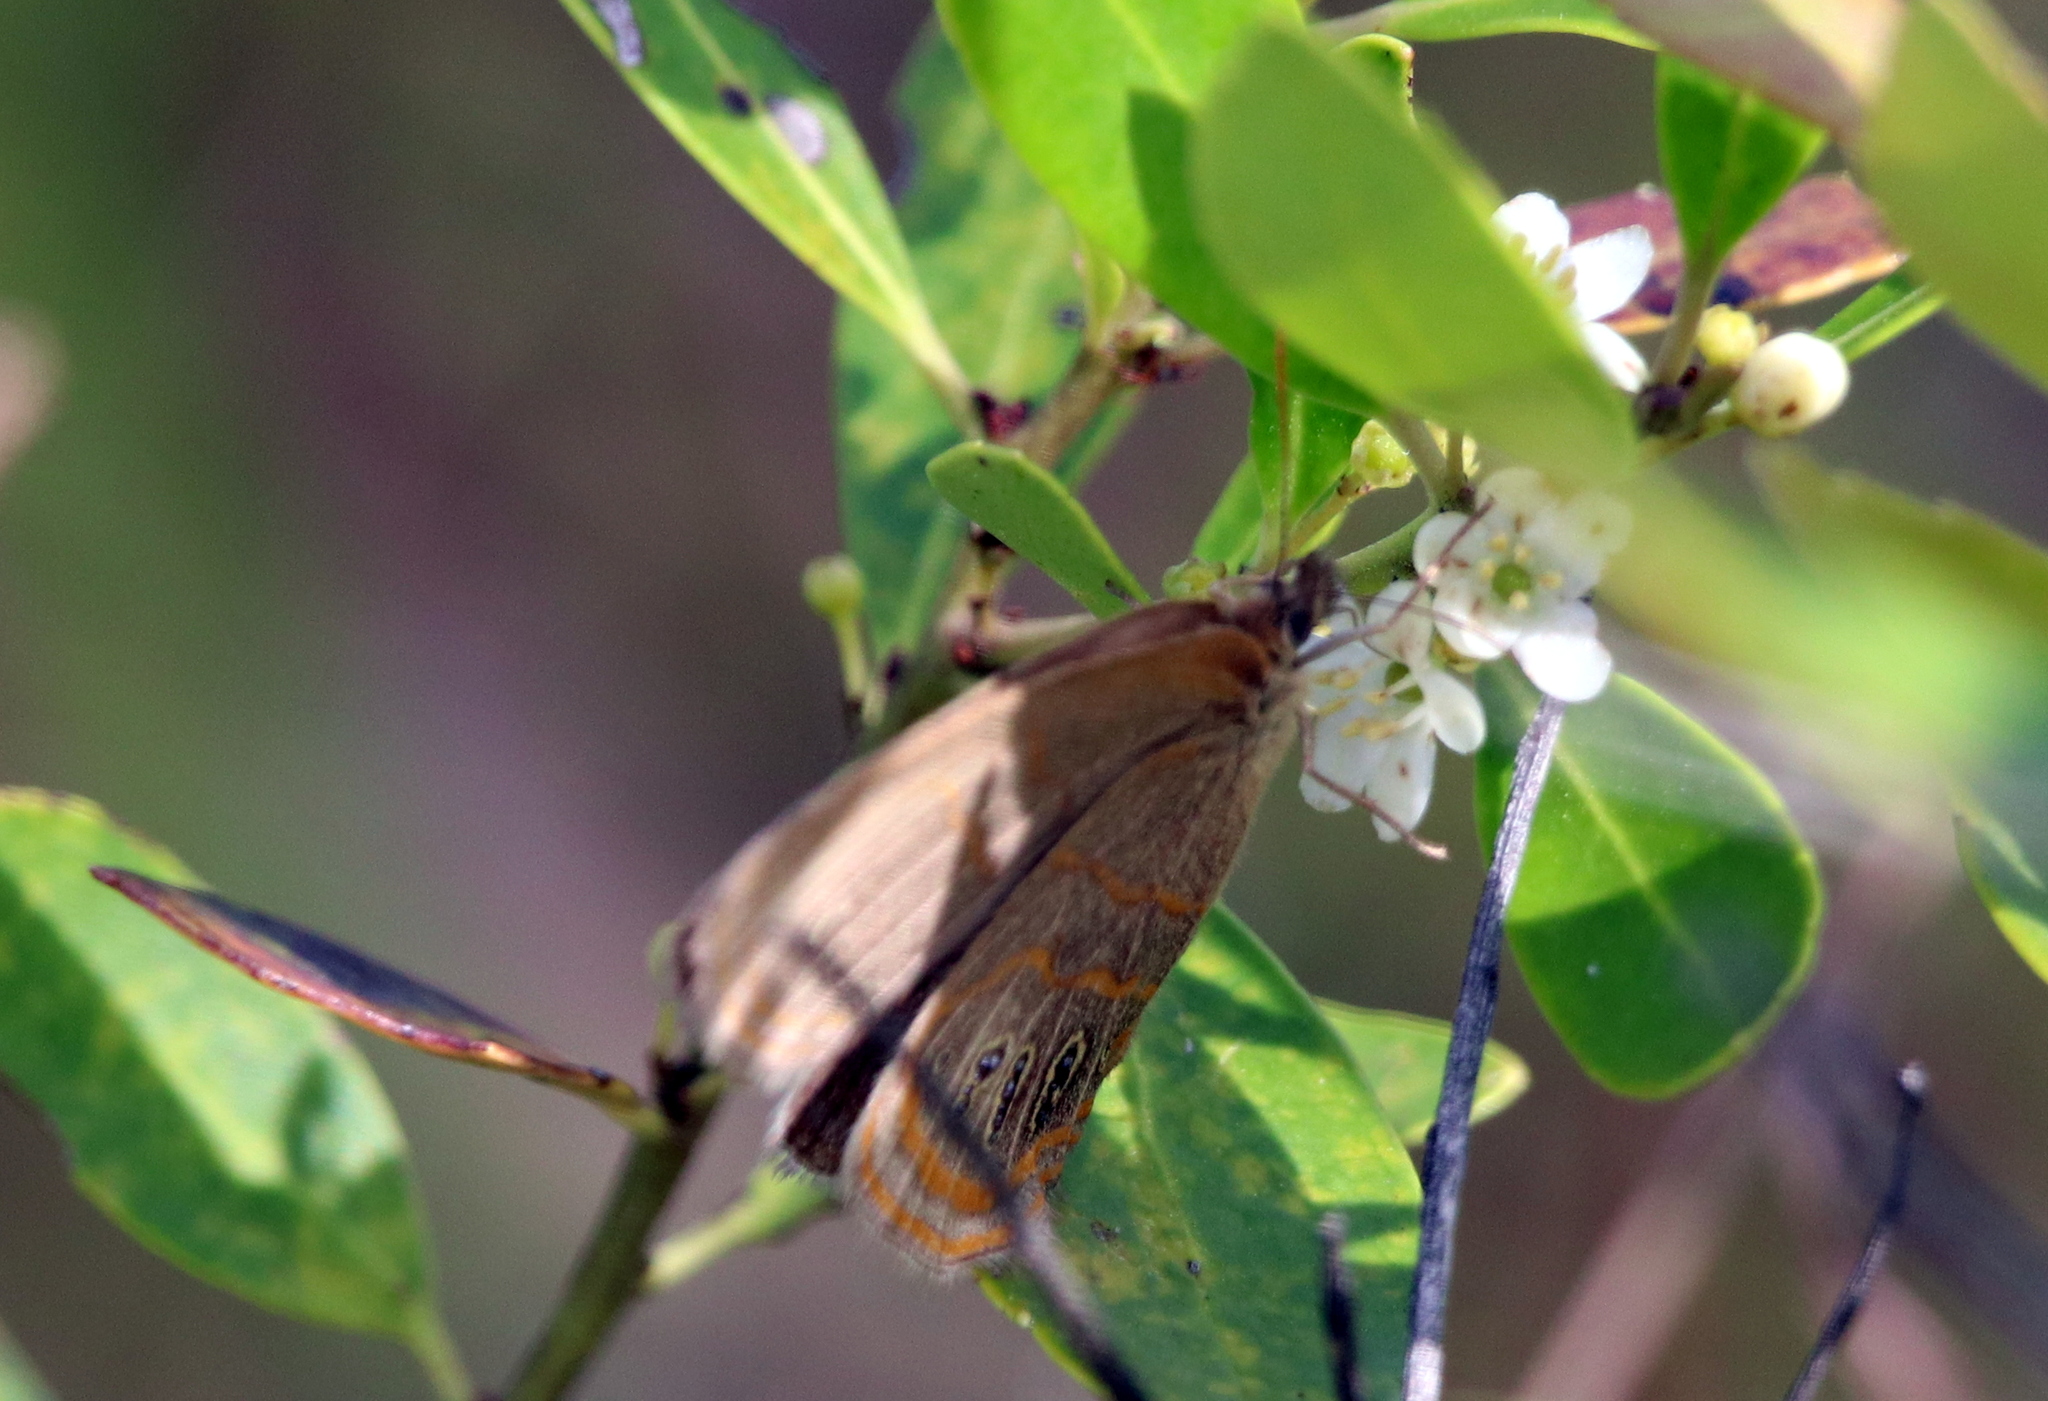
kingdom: Animalia
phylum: Arthropoda
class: Insecta
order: Lepidoptera
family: Nymphalidae
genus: Euptychia
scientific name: Euptychia phocion
